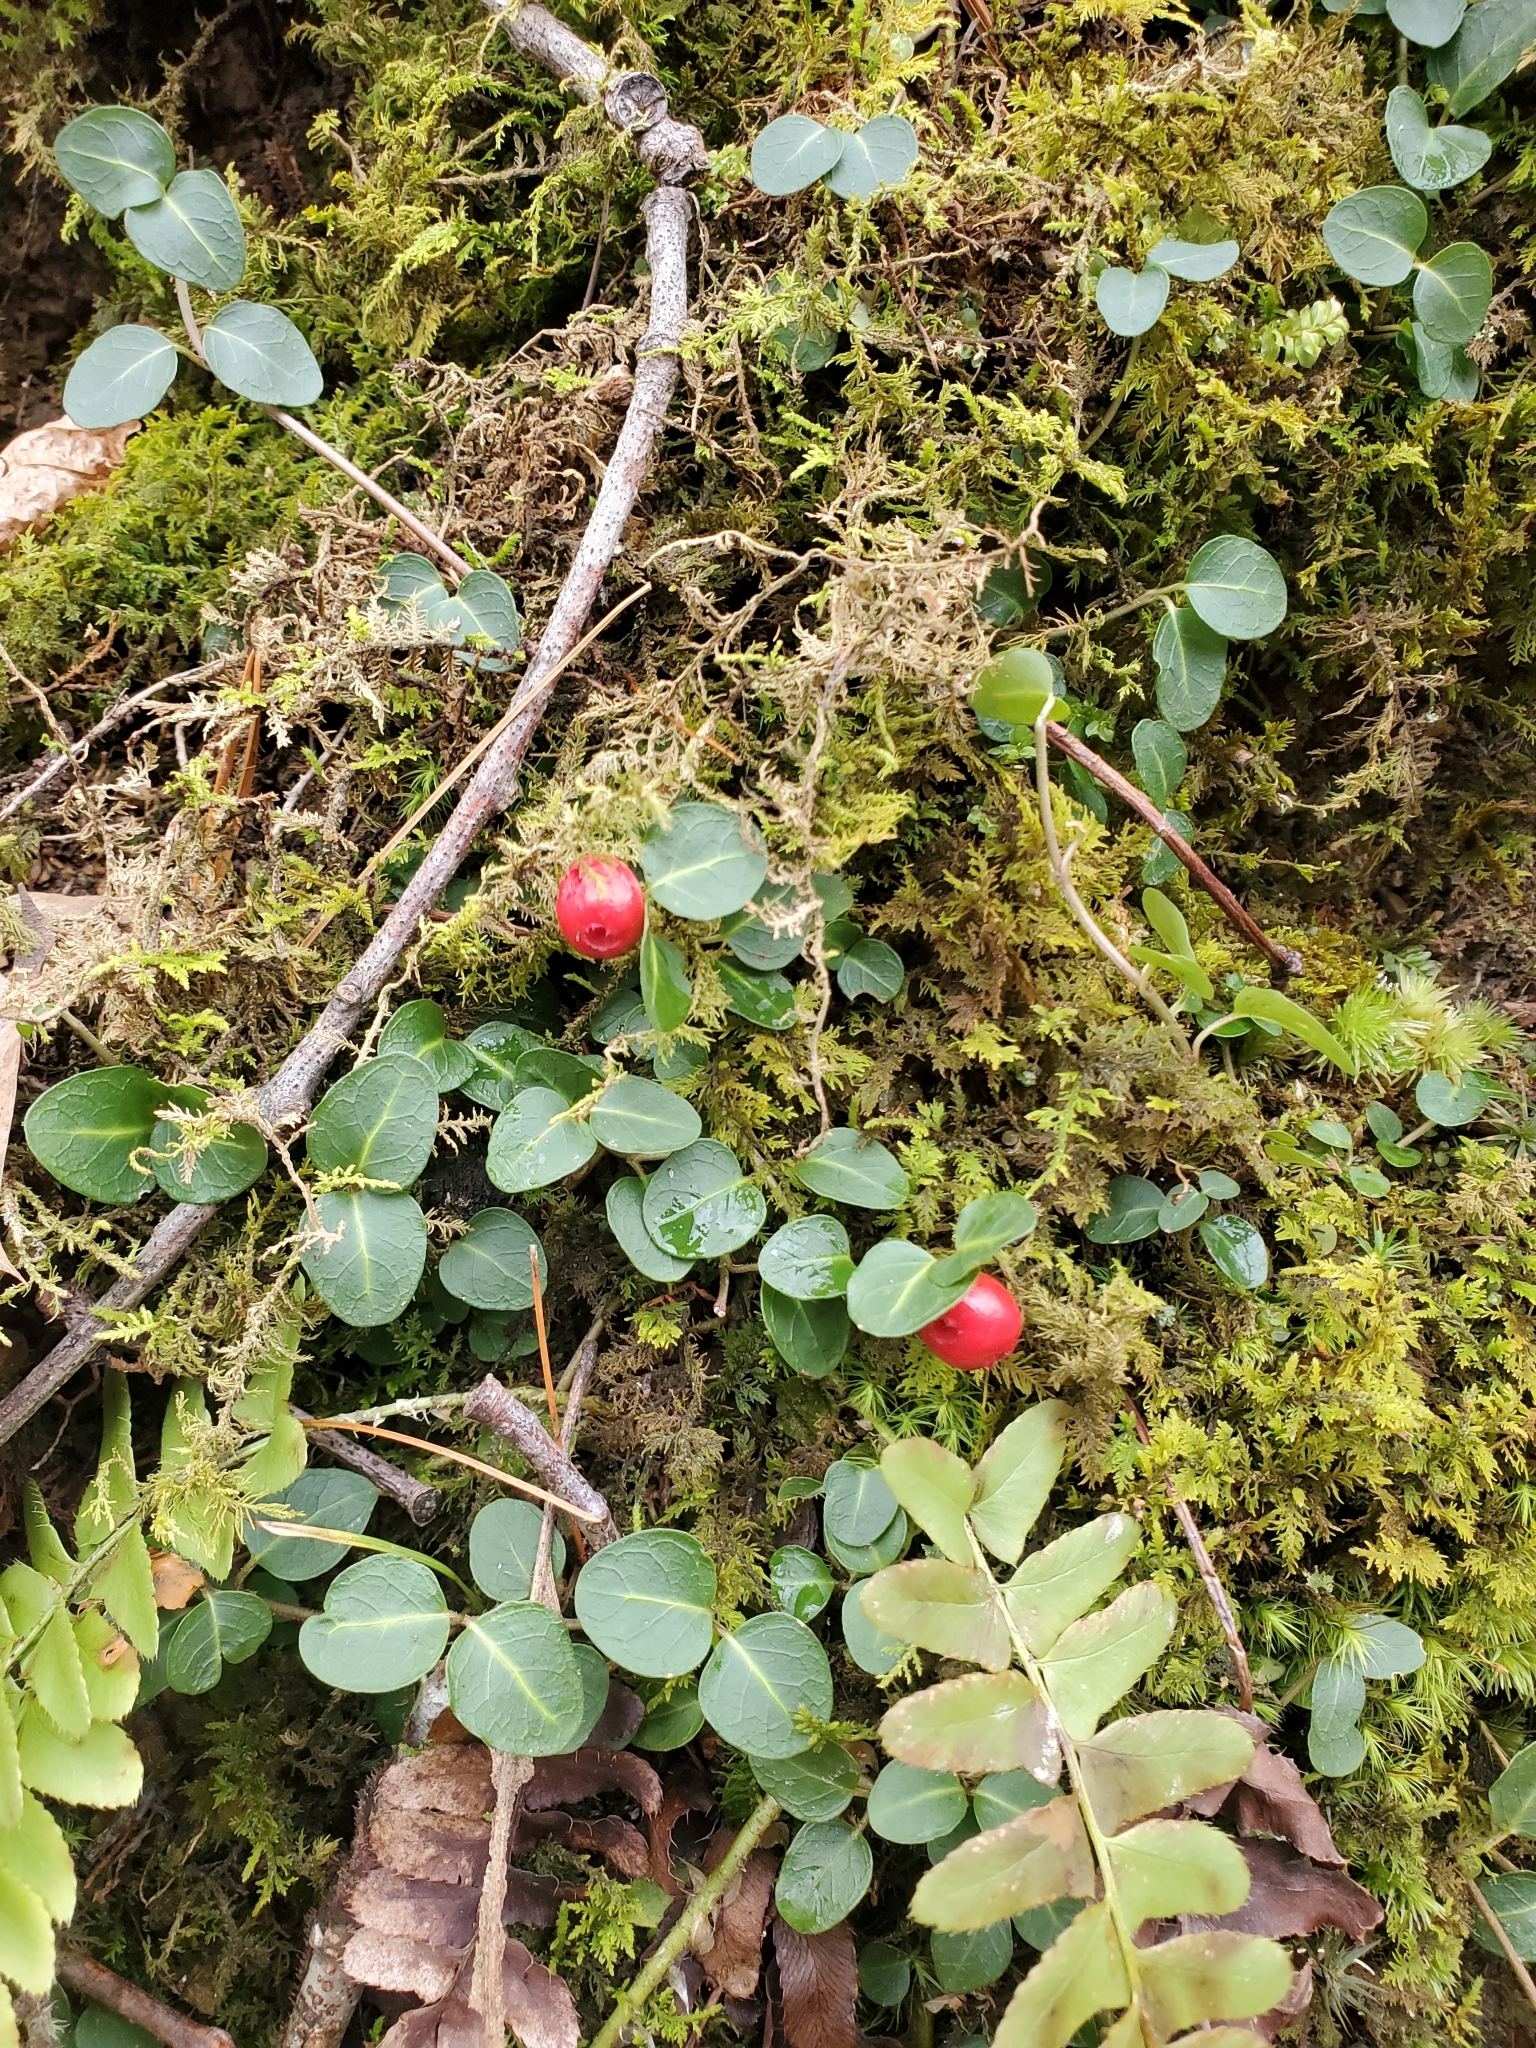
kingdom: Plantae
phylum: Tracheophyta
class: Magnoliopsida
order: Gentianales
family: Rubiaceae
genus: Mitchella
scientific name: Mitchella repens
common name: Partridge-berry
